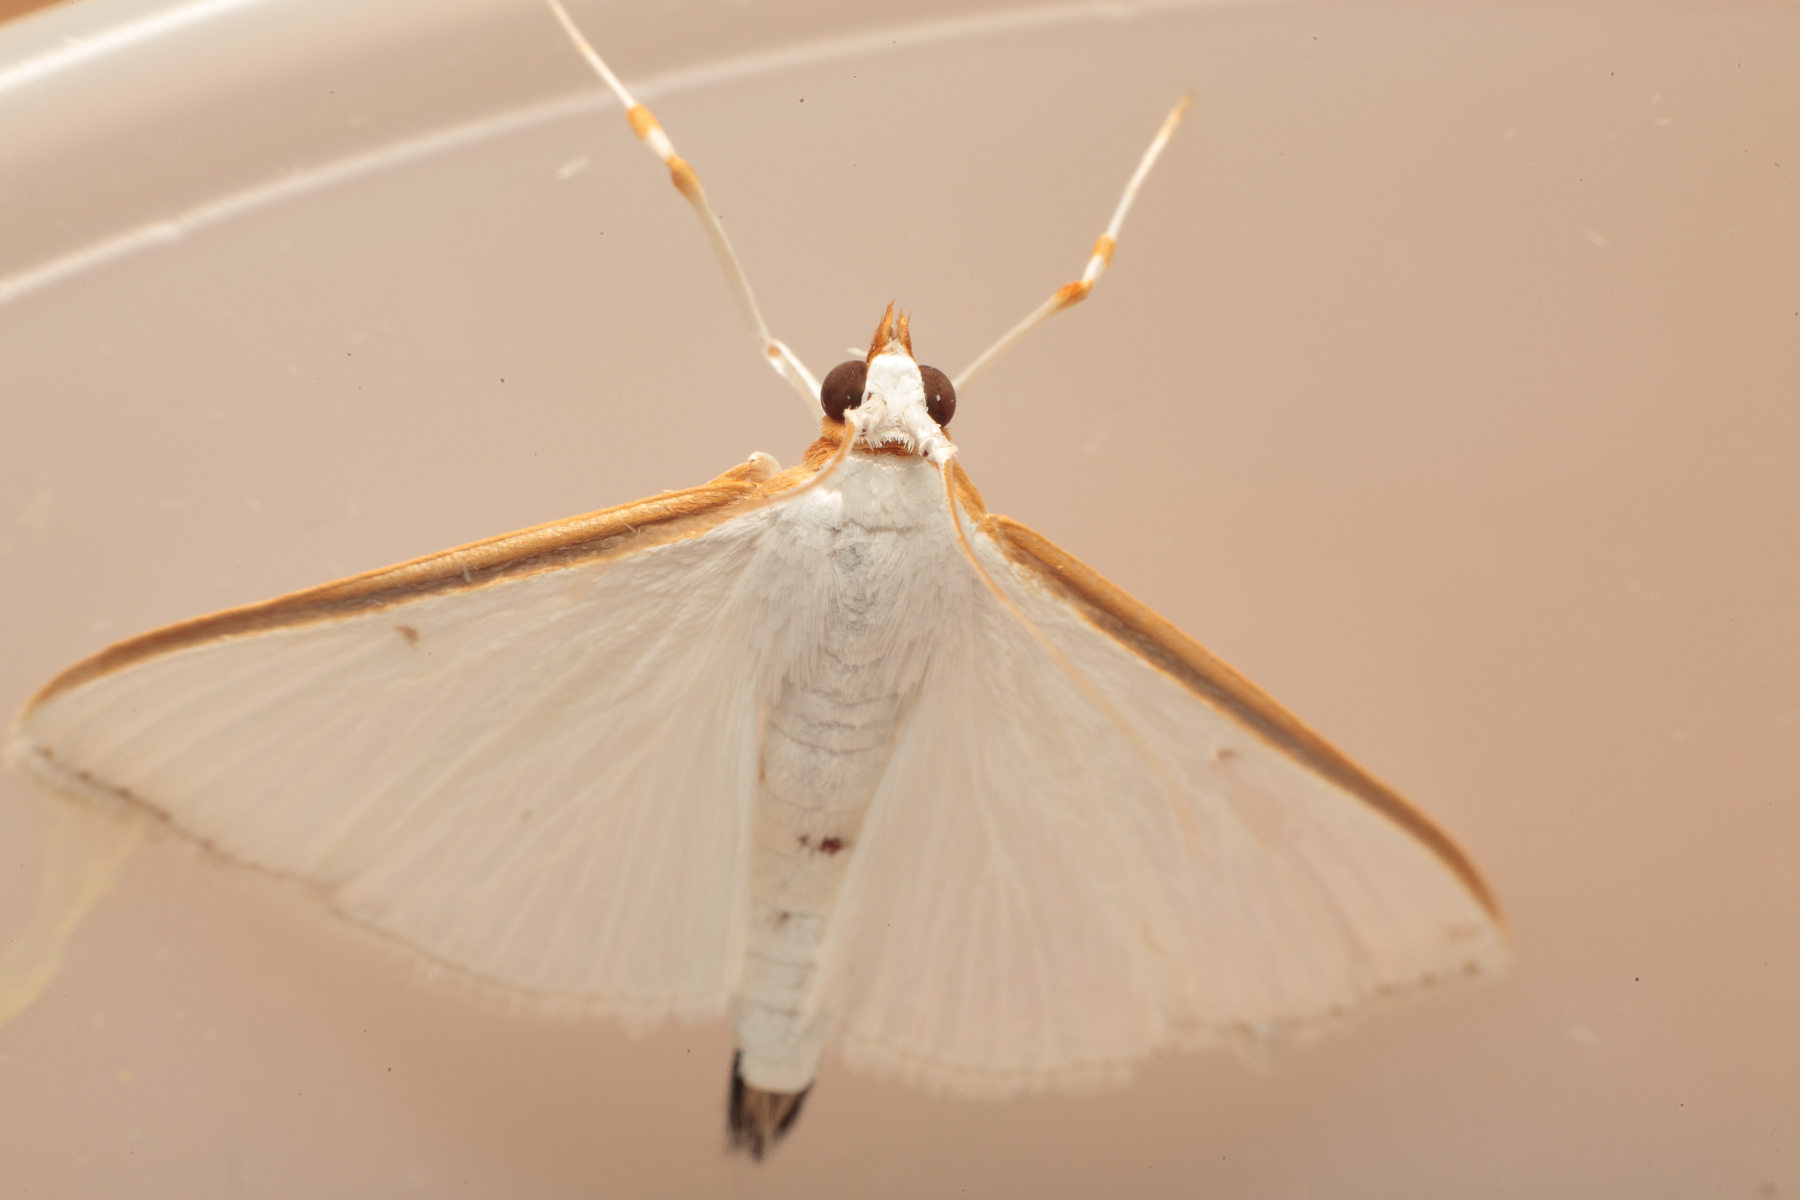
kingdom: Animalia
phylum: Arthropoda
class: Insecta
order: Lepidoptera
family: Crambidae
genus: Diaphania
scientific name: Diaphania costata
